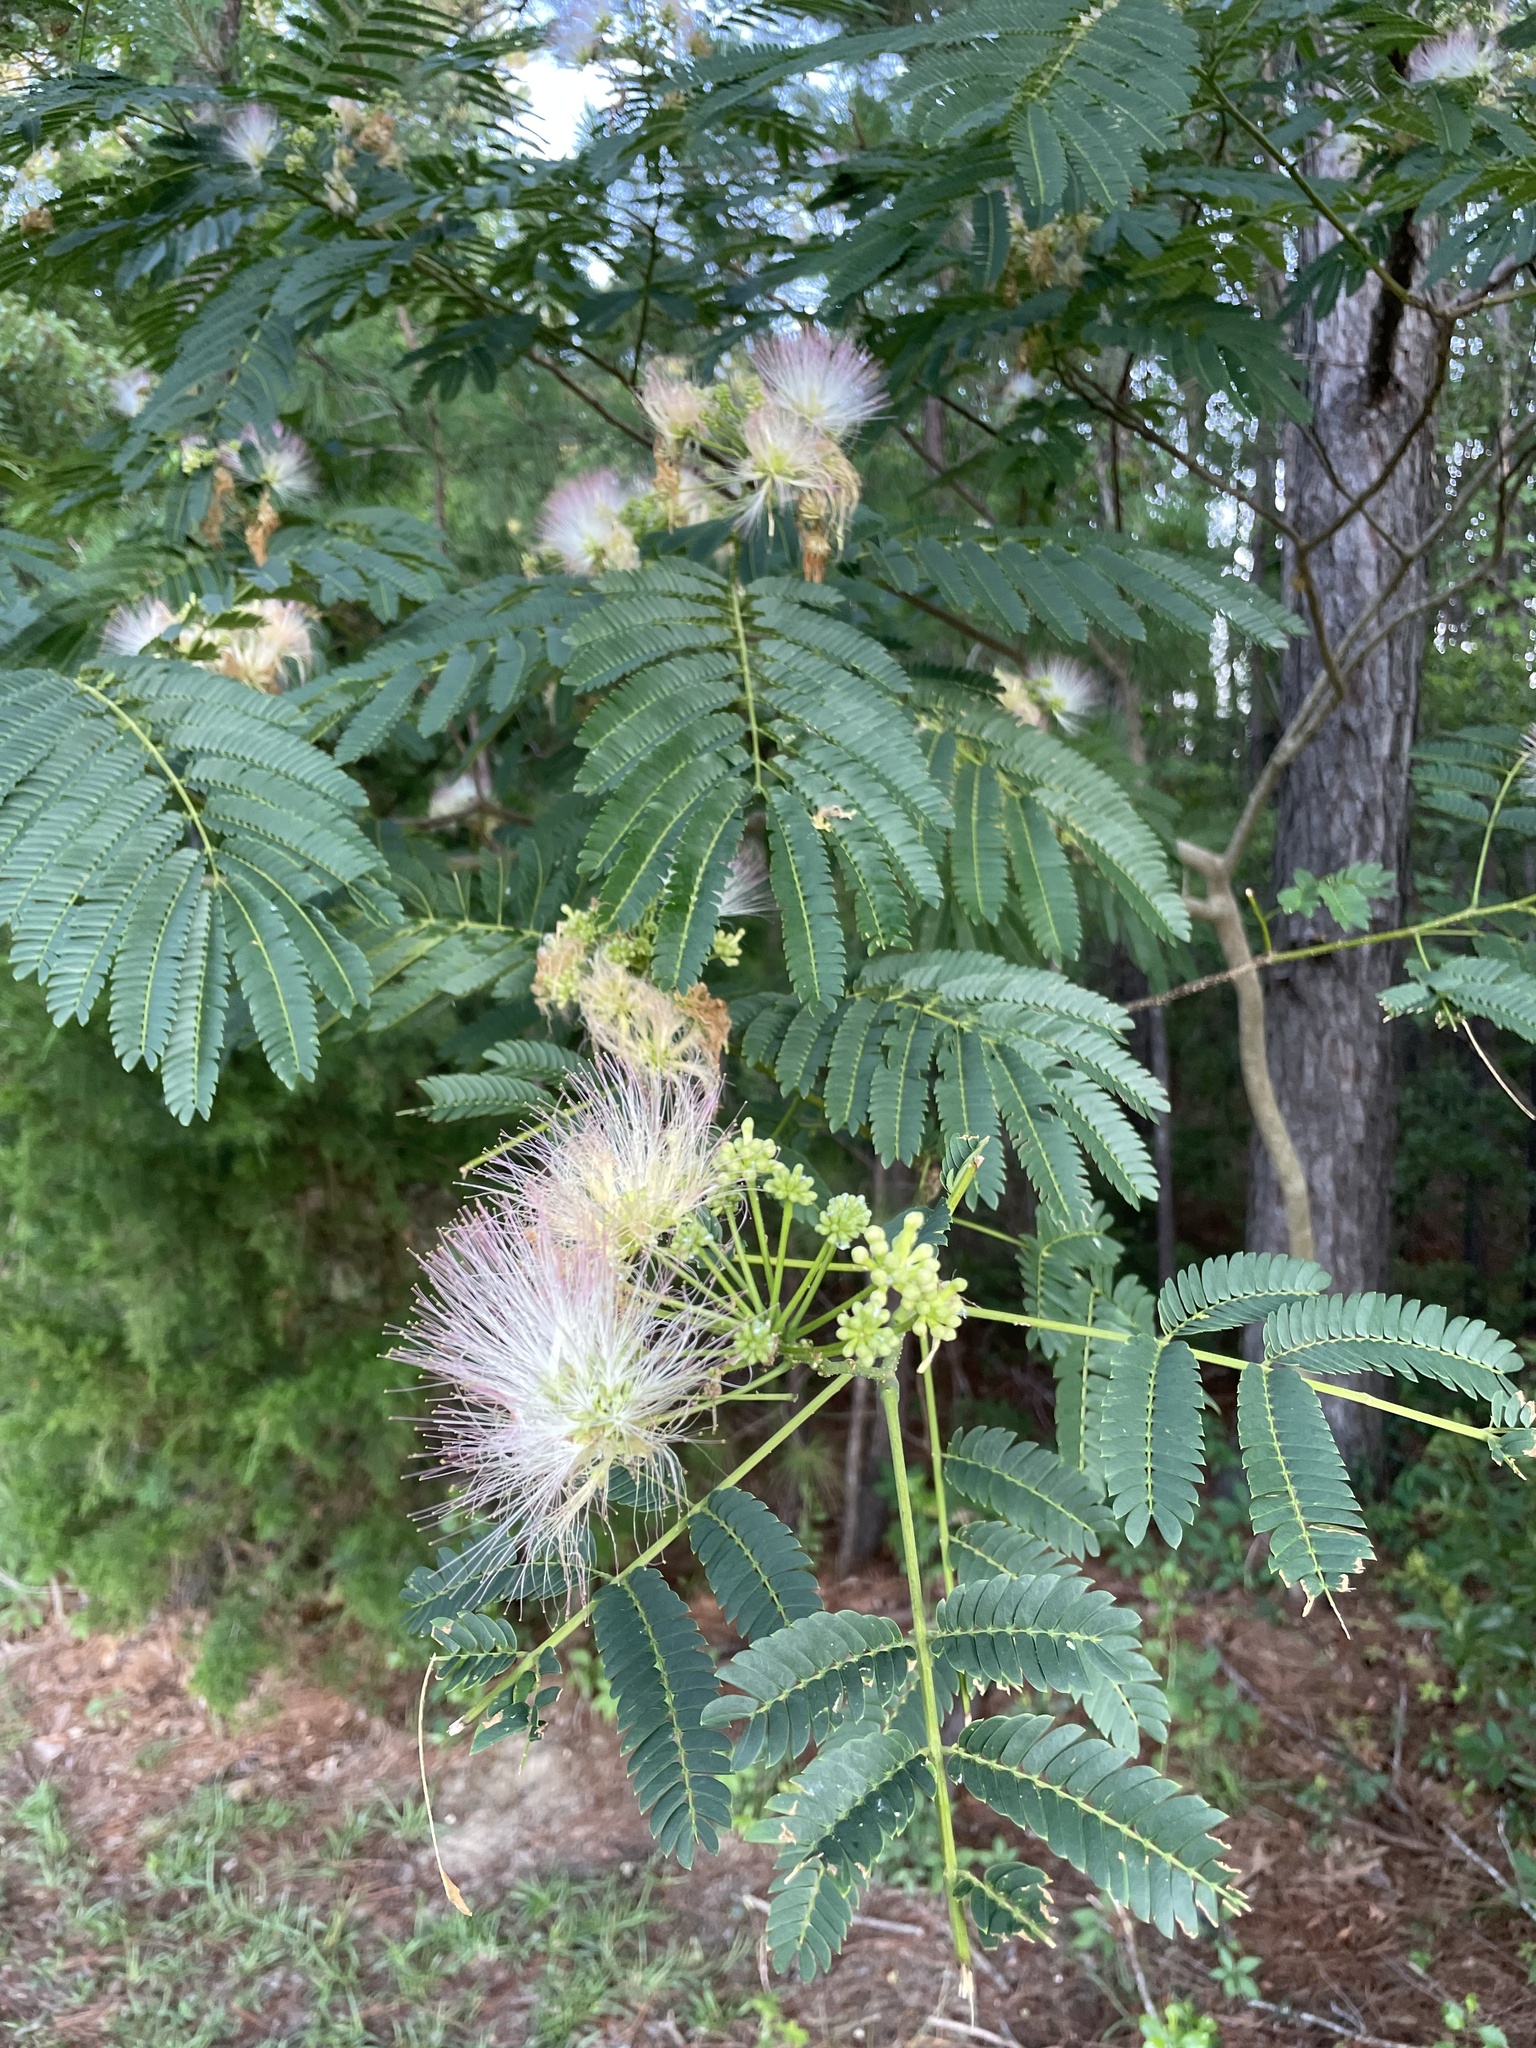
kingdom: Plantae
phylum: Tracheophyta
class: Magnoliopsida
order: Fabales
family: Fabaceae
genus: Albizia
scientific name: Albizia julibrissin
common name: Silktree
